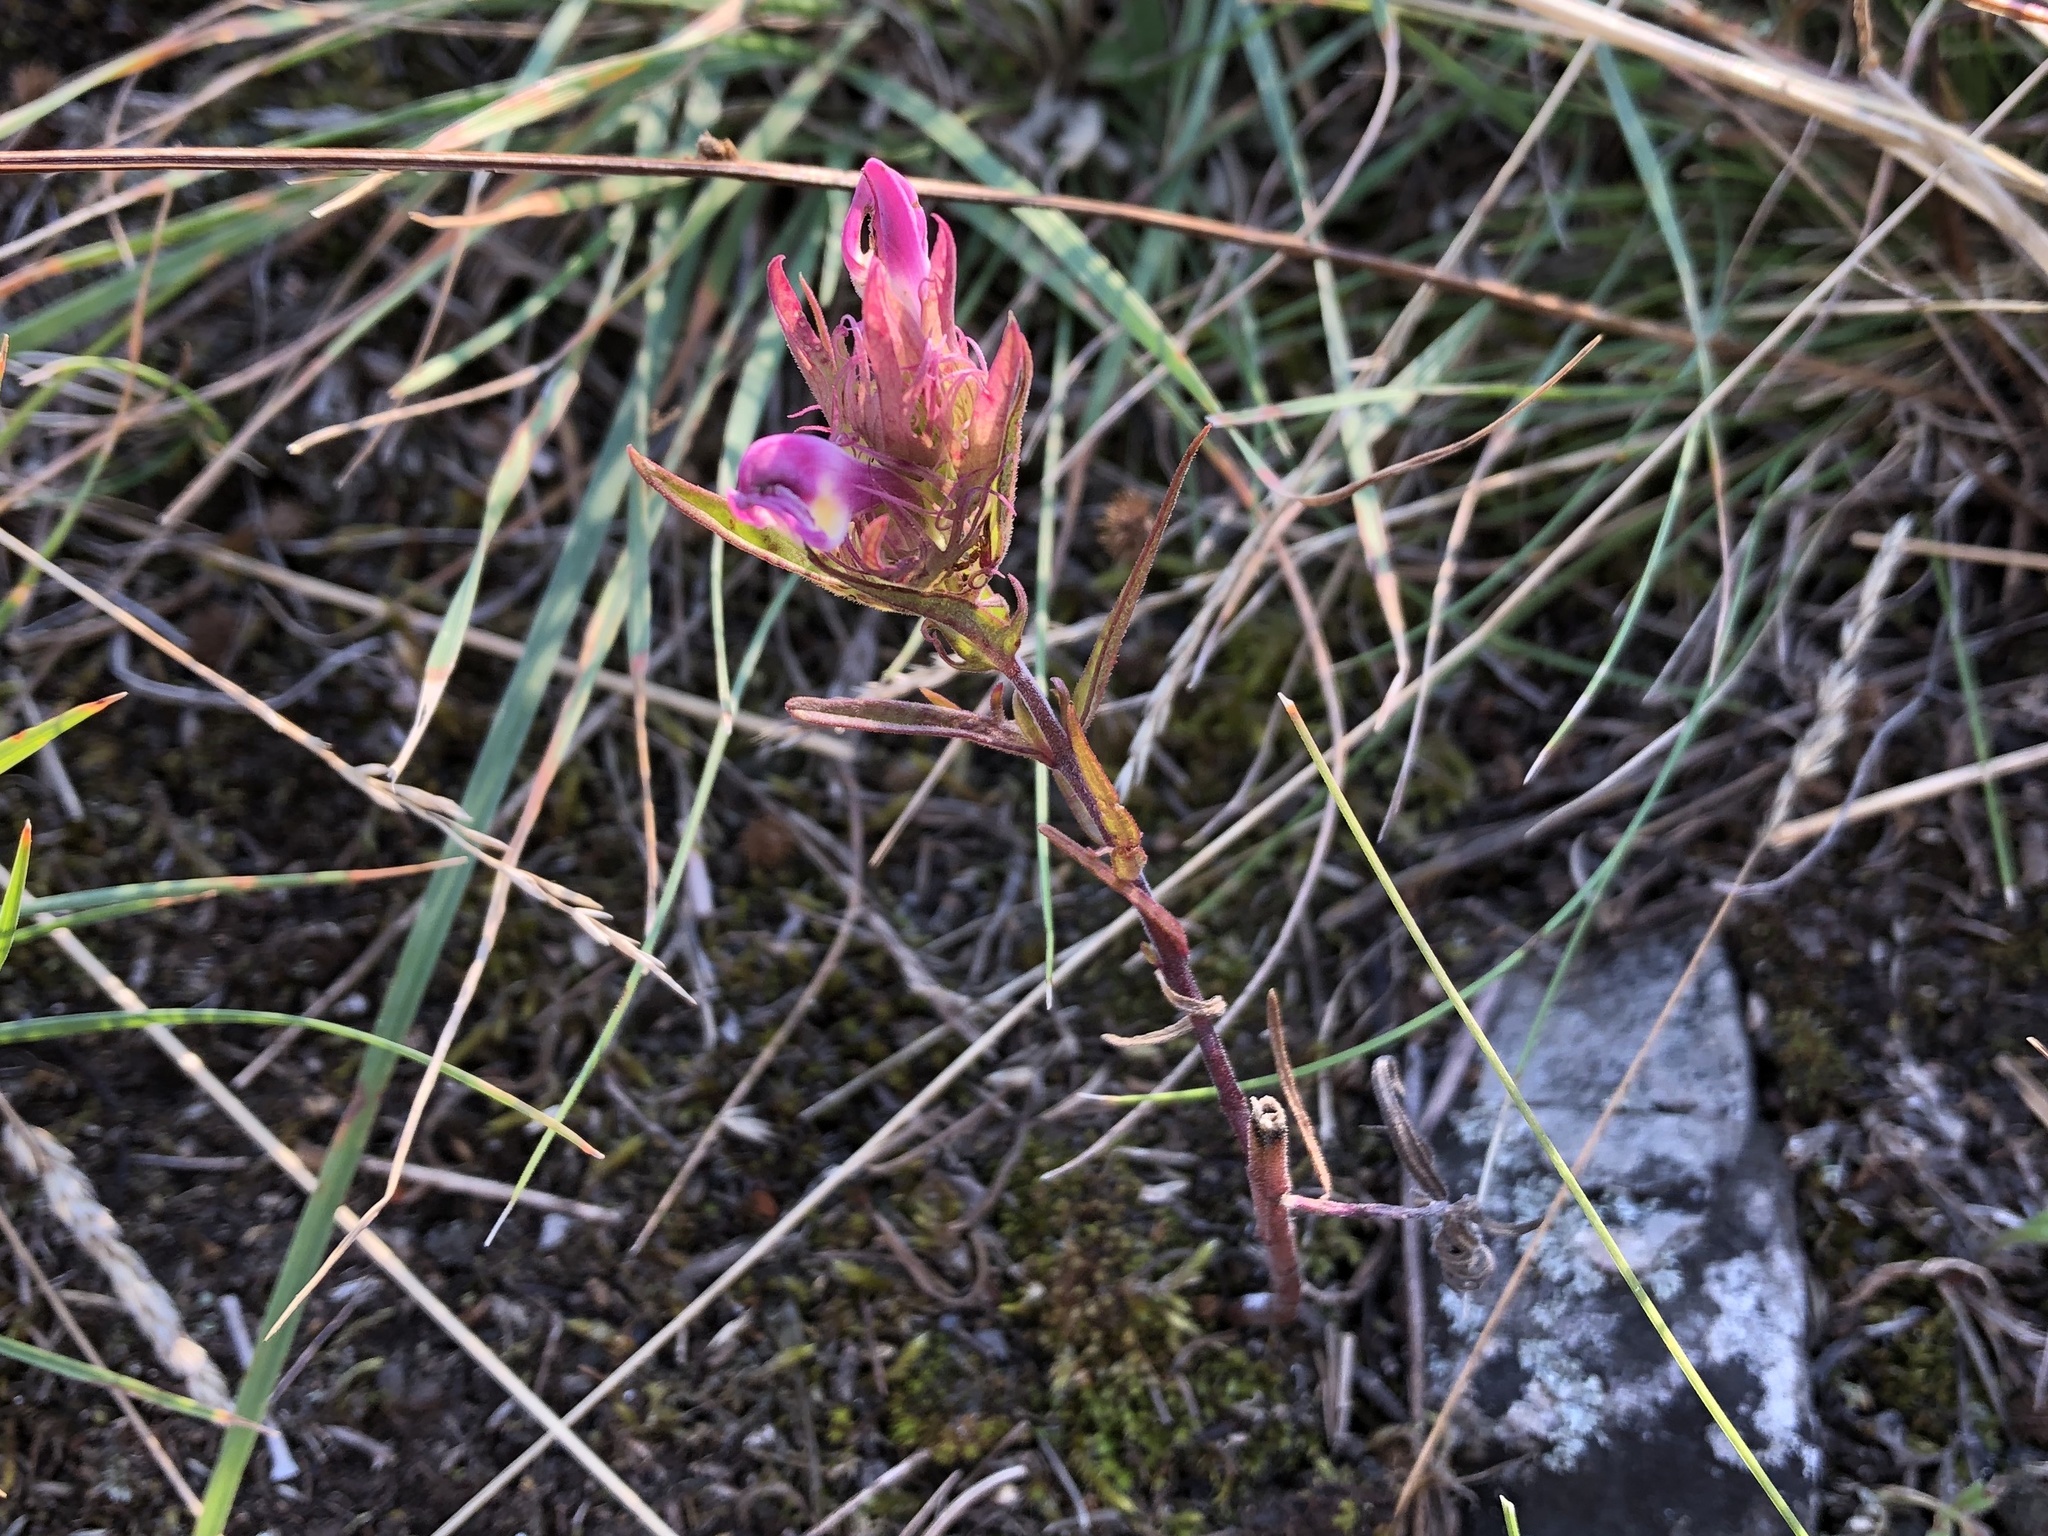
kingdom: Plantae
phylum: Tracheophyta
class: Magnoliopsida
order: Lamiales
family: Orobanchaceae
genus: Melampyrum
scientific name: Melampyrum arvense
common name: Field cow-wheat
